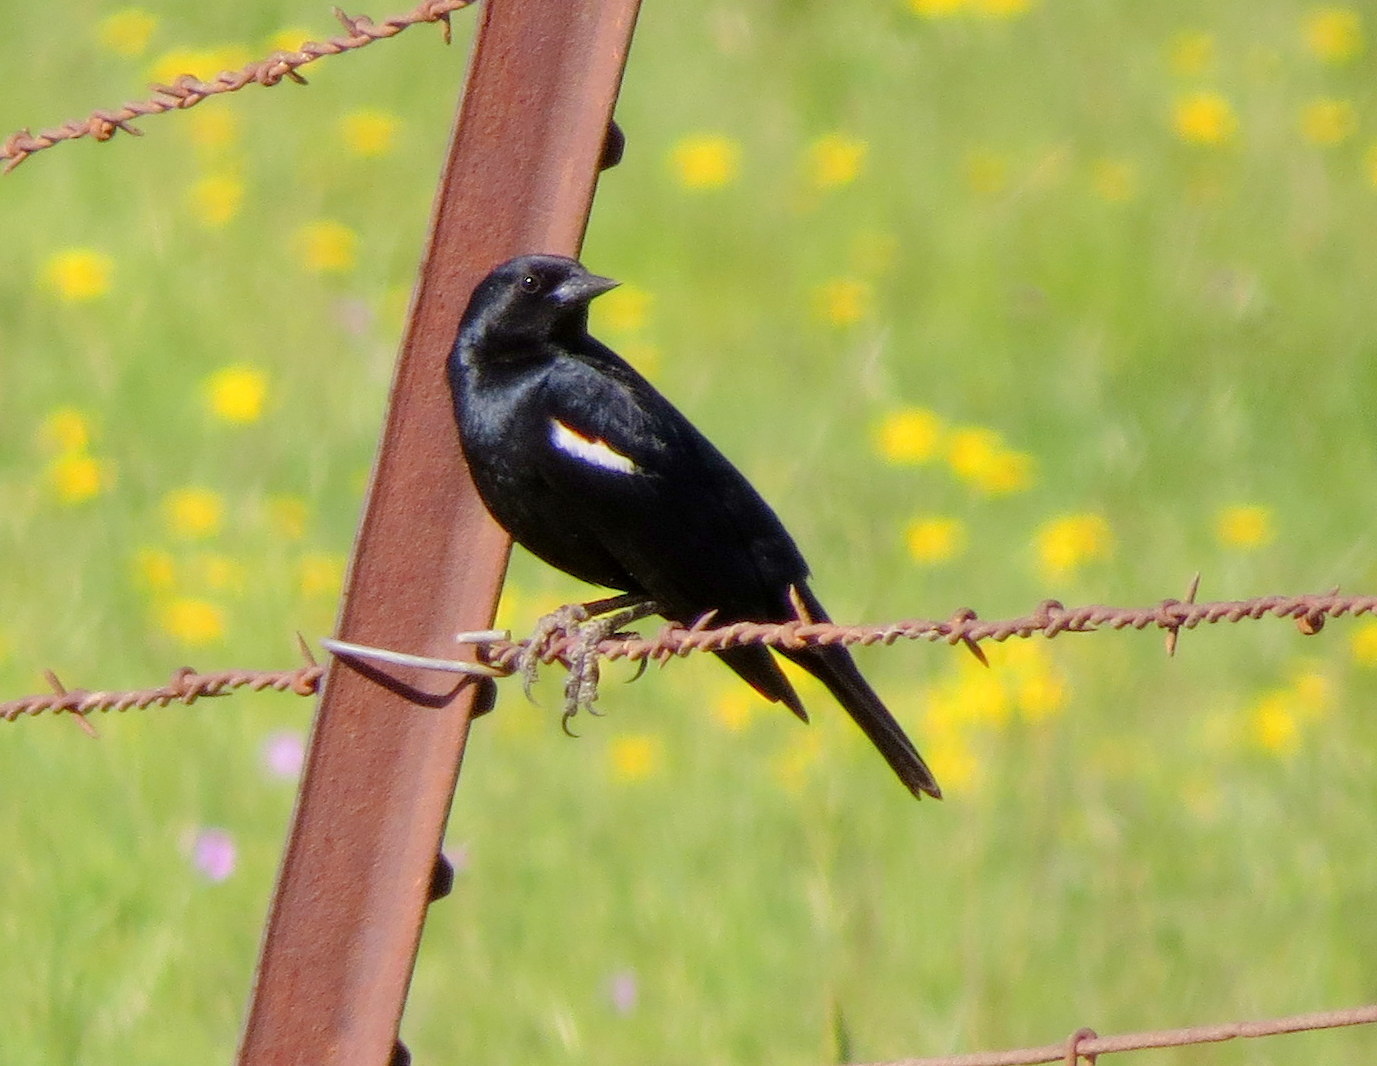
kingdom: Animalia
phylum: Chordata
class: Aves
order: Passeriformes
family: Icteridae
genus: Agelaius
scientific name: Agelaius tricolor
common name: Tricolored blackbird
